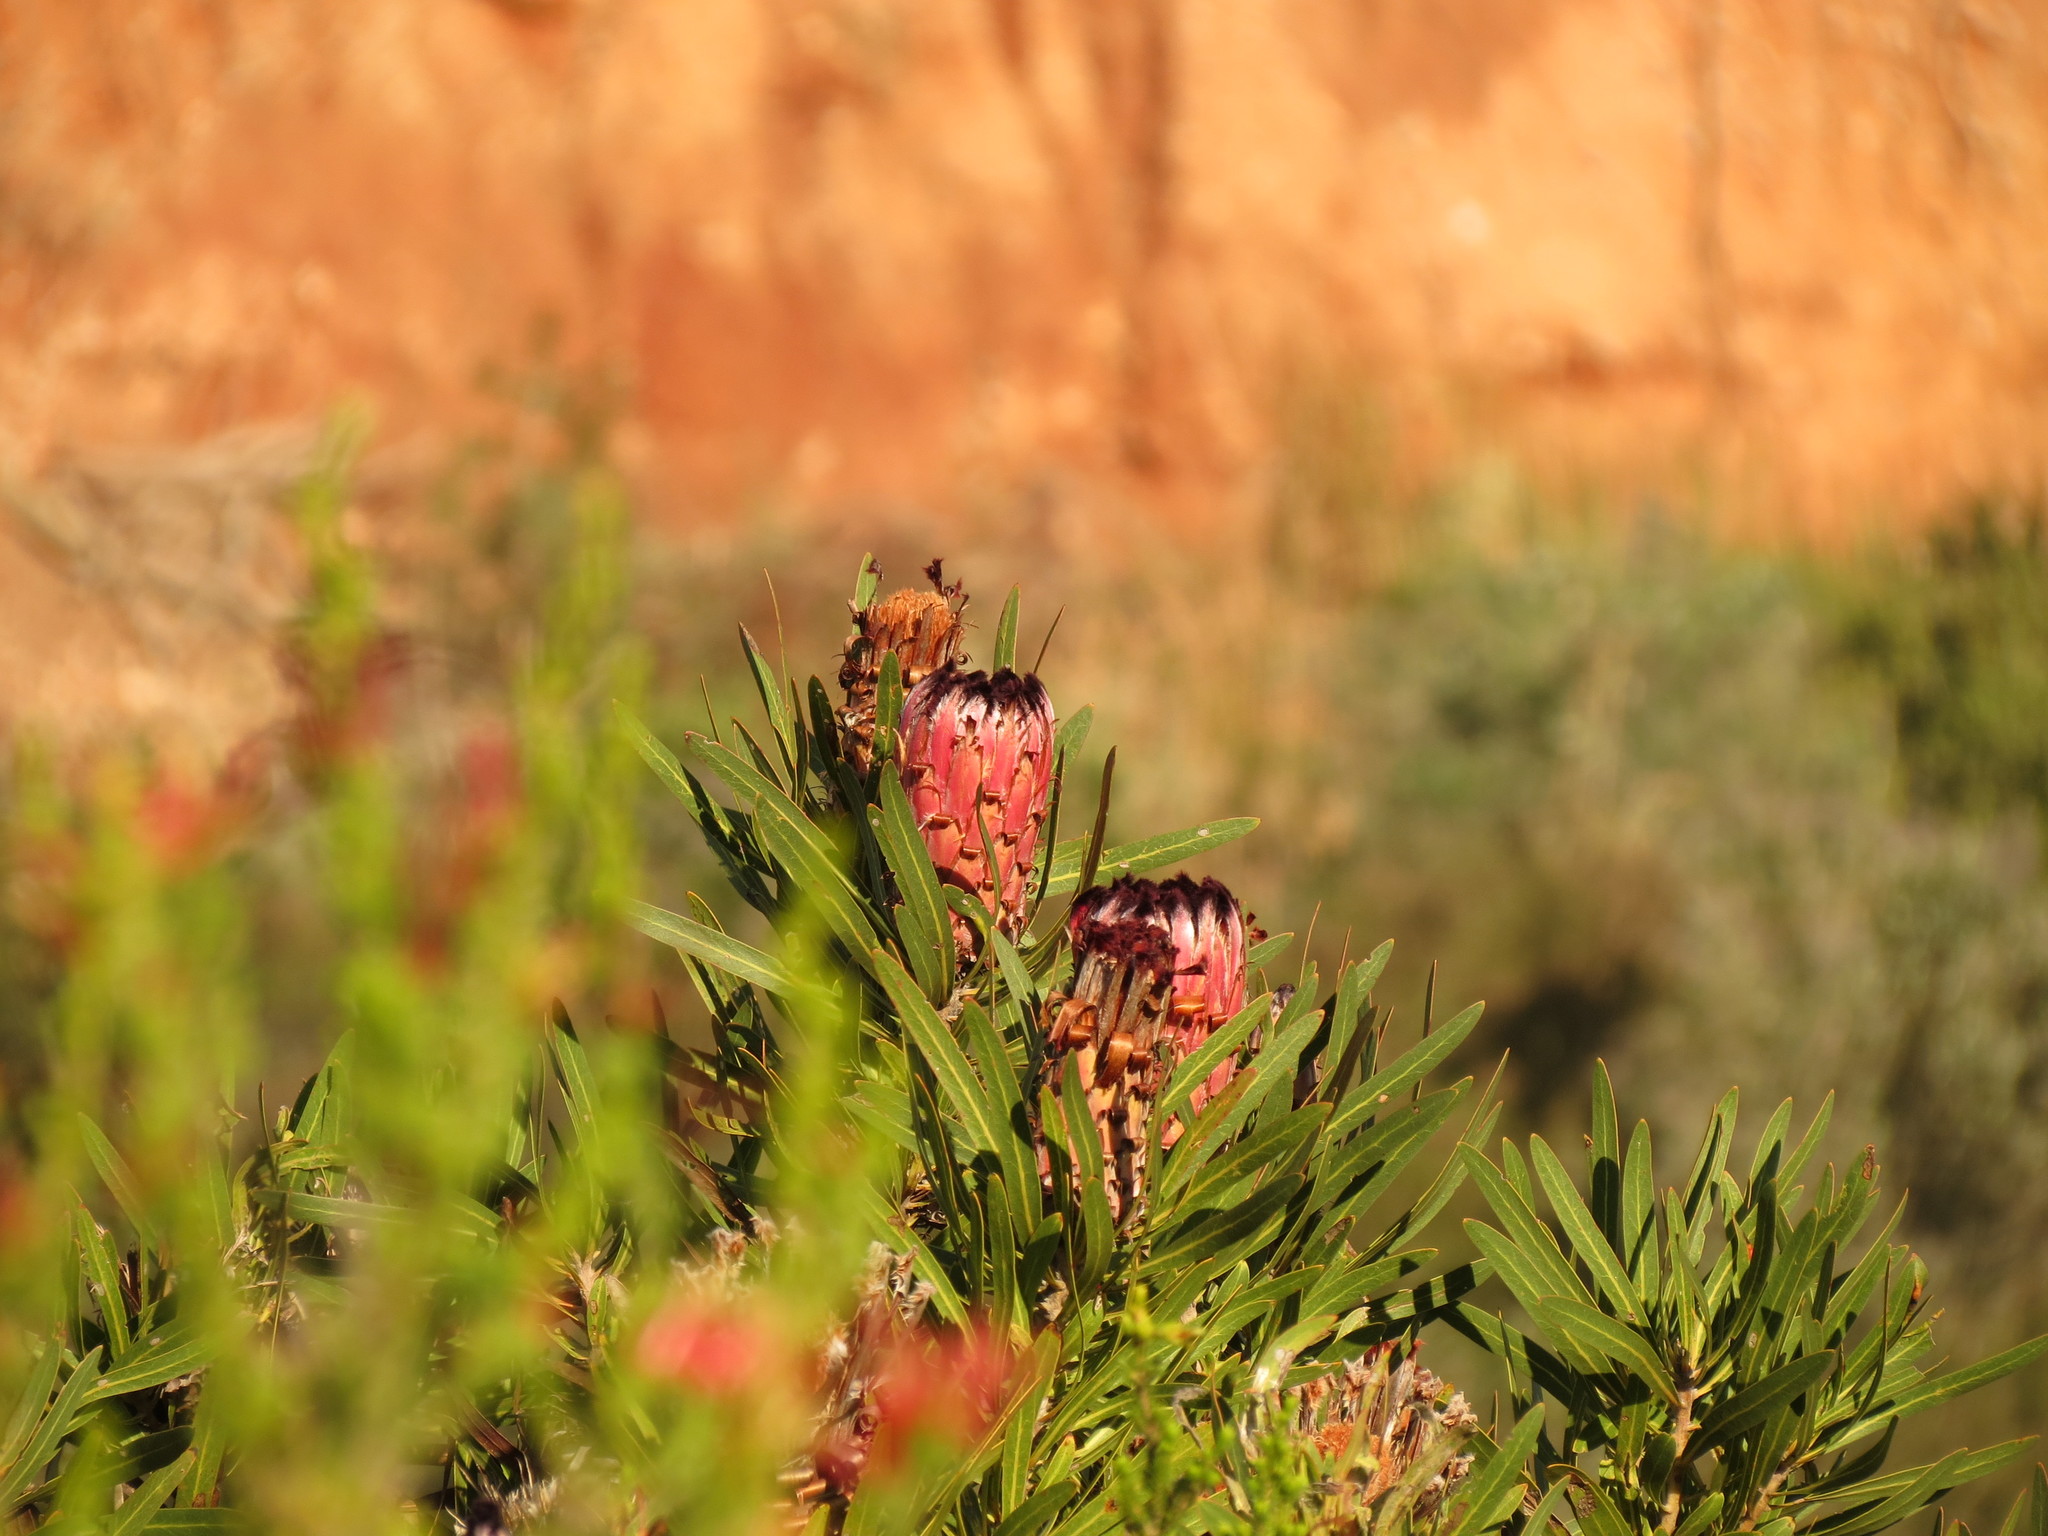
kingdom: Plantae
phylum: Tracheophyta
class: Magnoliopsida
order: Proteales
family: Proteaceae
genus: Protea
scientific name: Protea neriifolia
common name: Blue sugarbush
